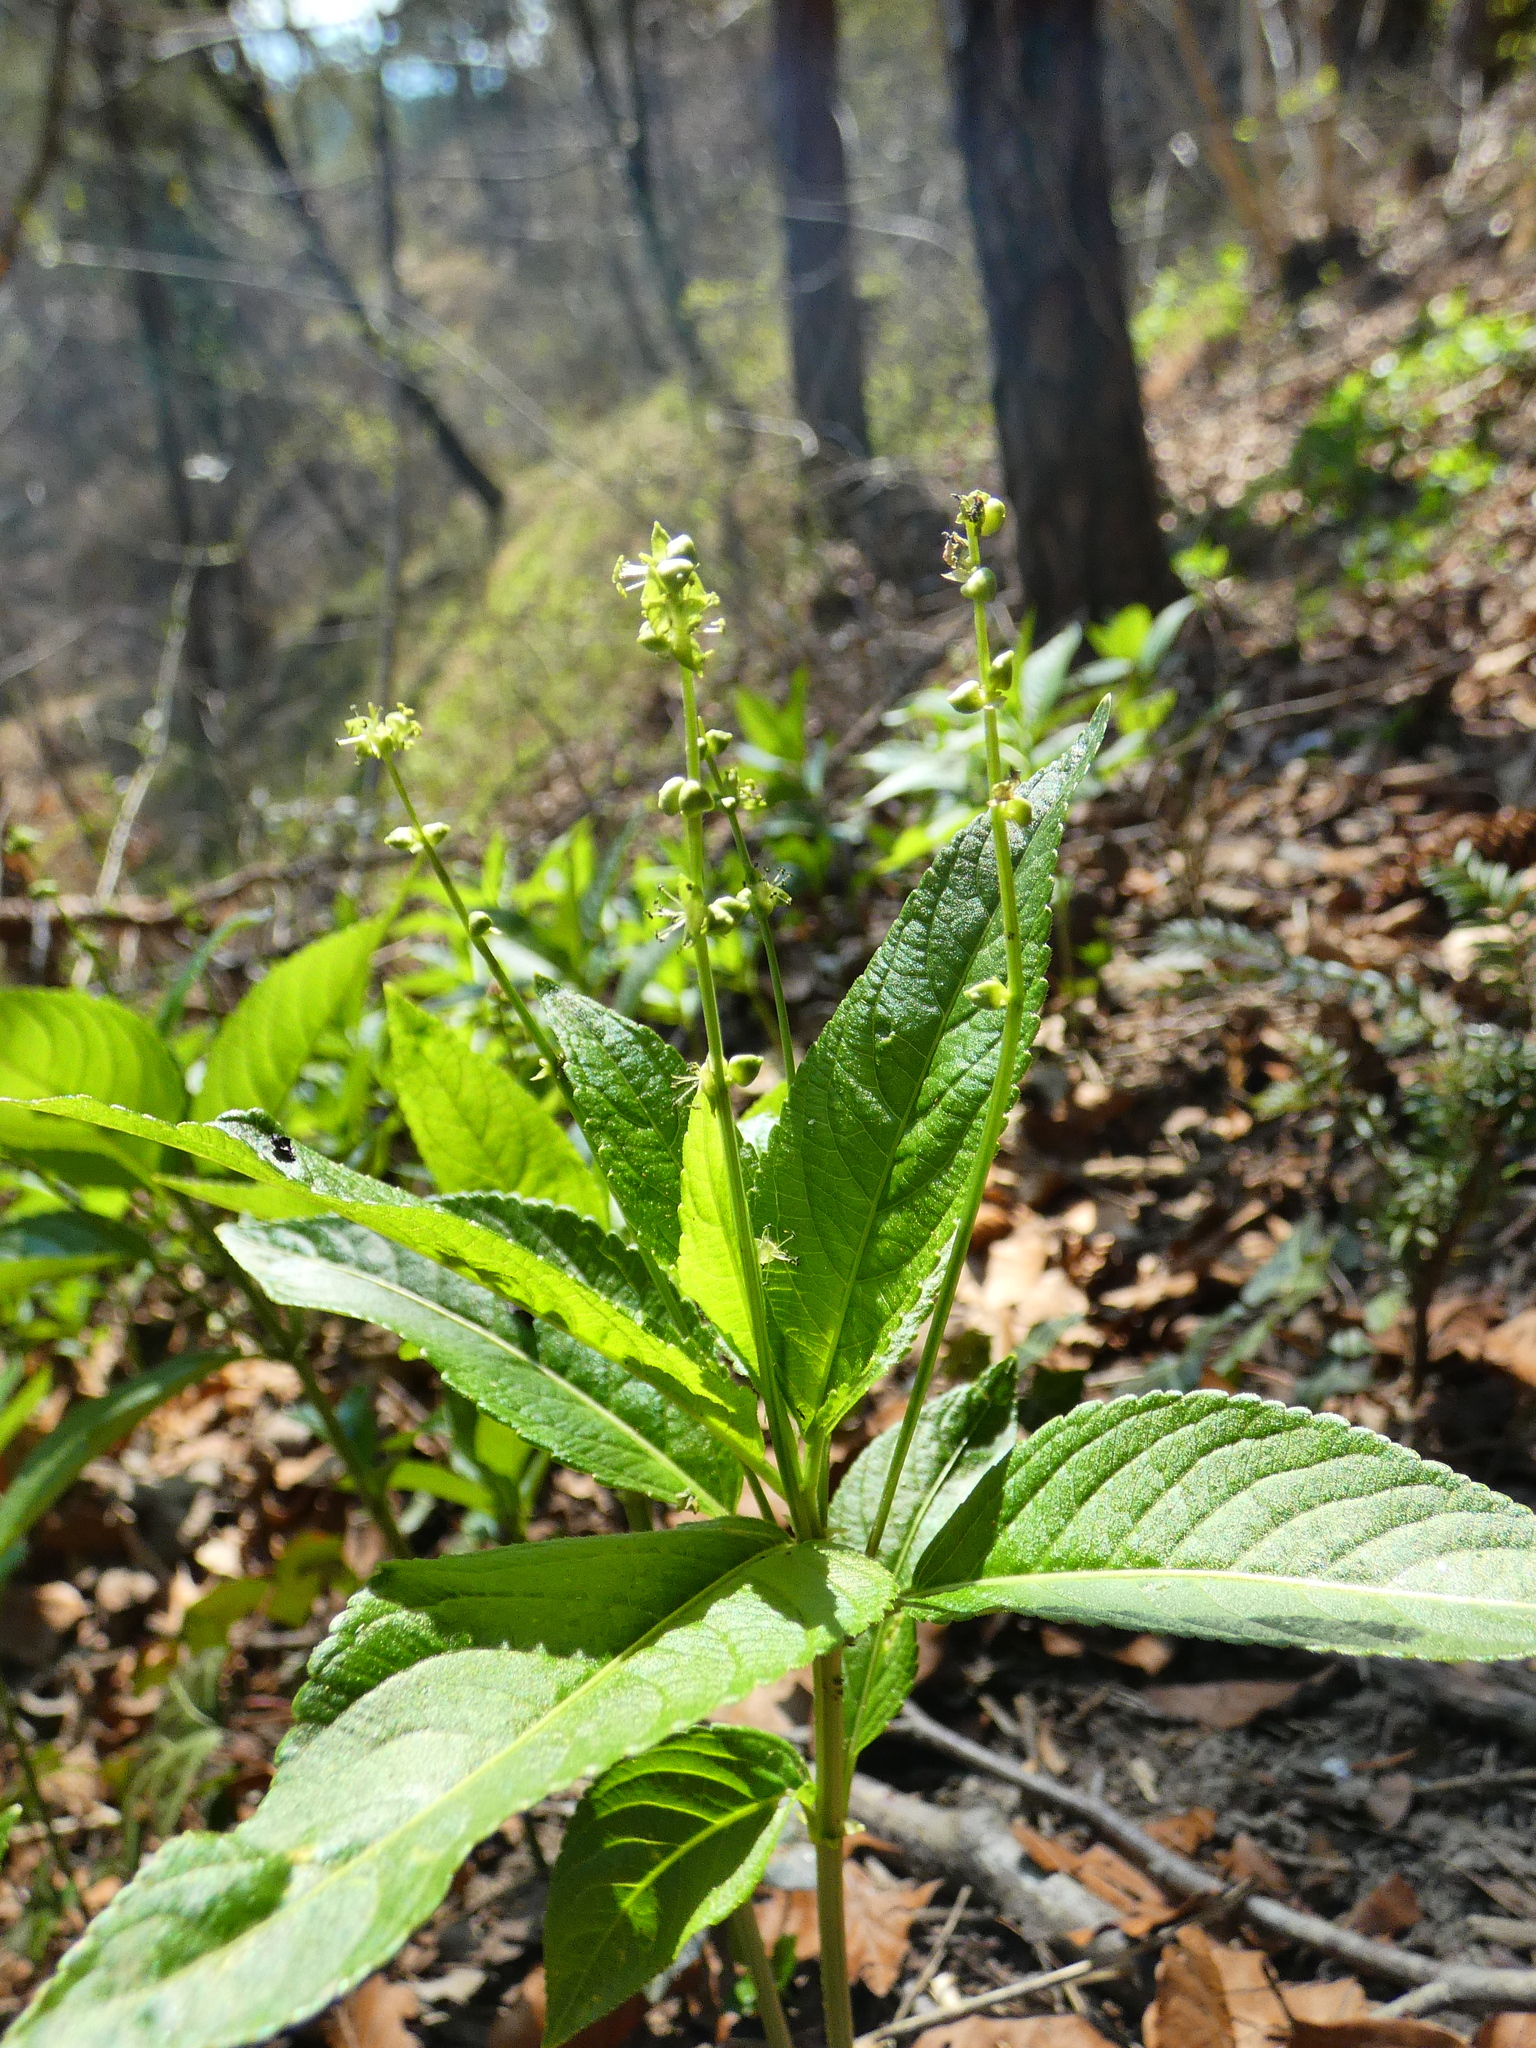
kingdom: Plantae
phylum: Tracheophyta
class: Magnoliopsida
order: Malpighiales
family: Euphorbiaceae
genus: Mercurialis
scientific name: Mercurialis perennis
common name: Dog mercury
